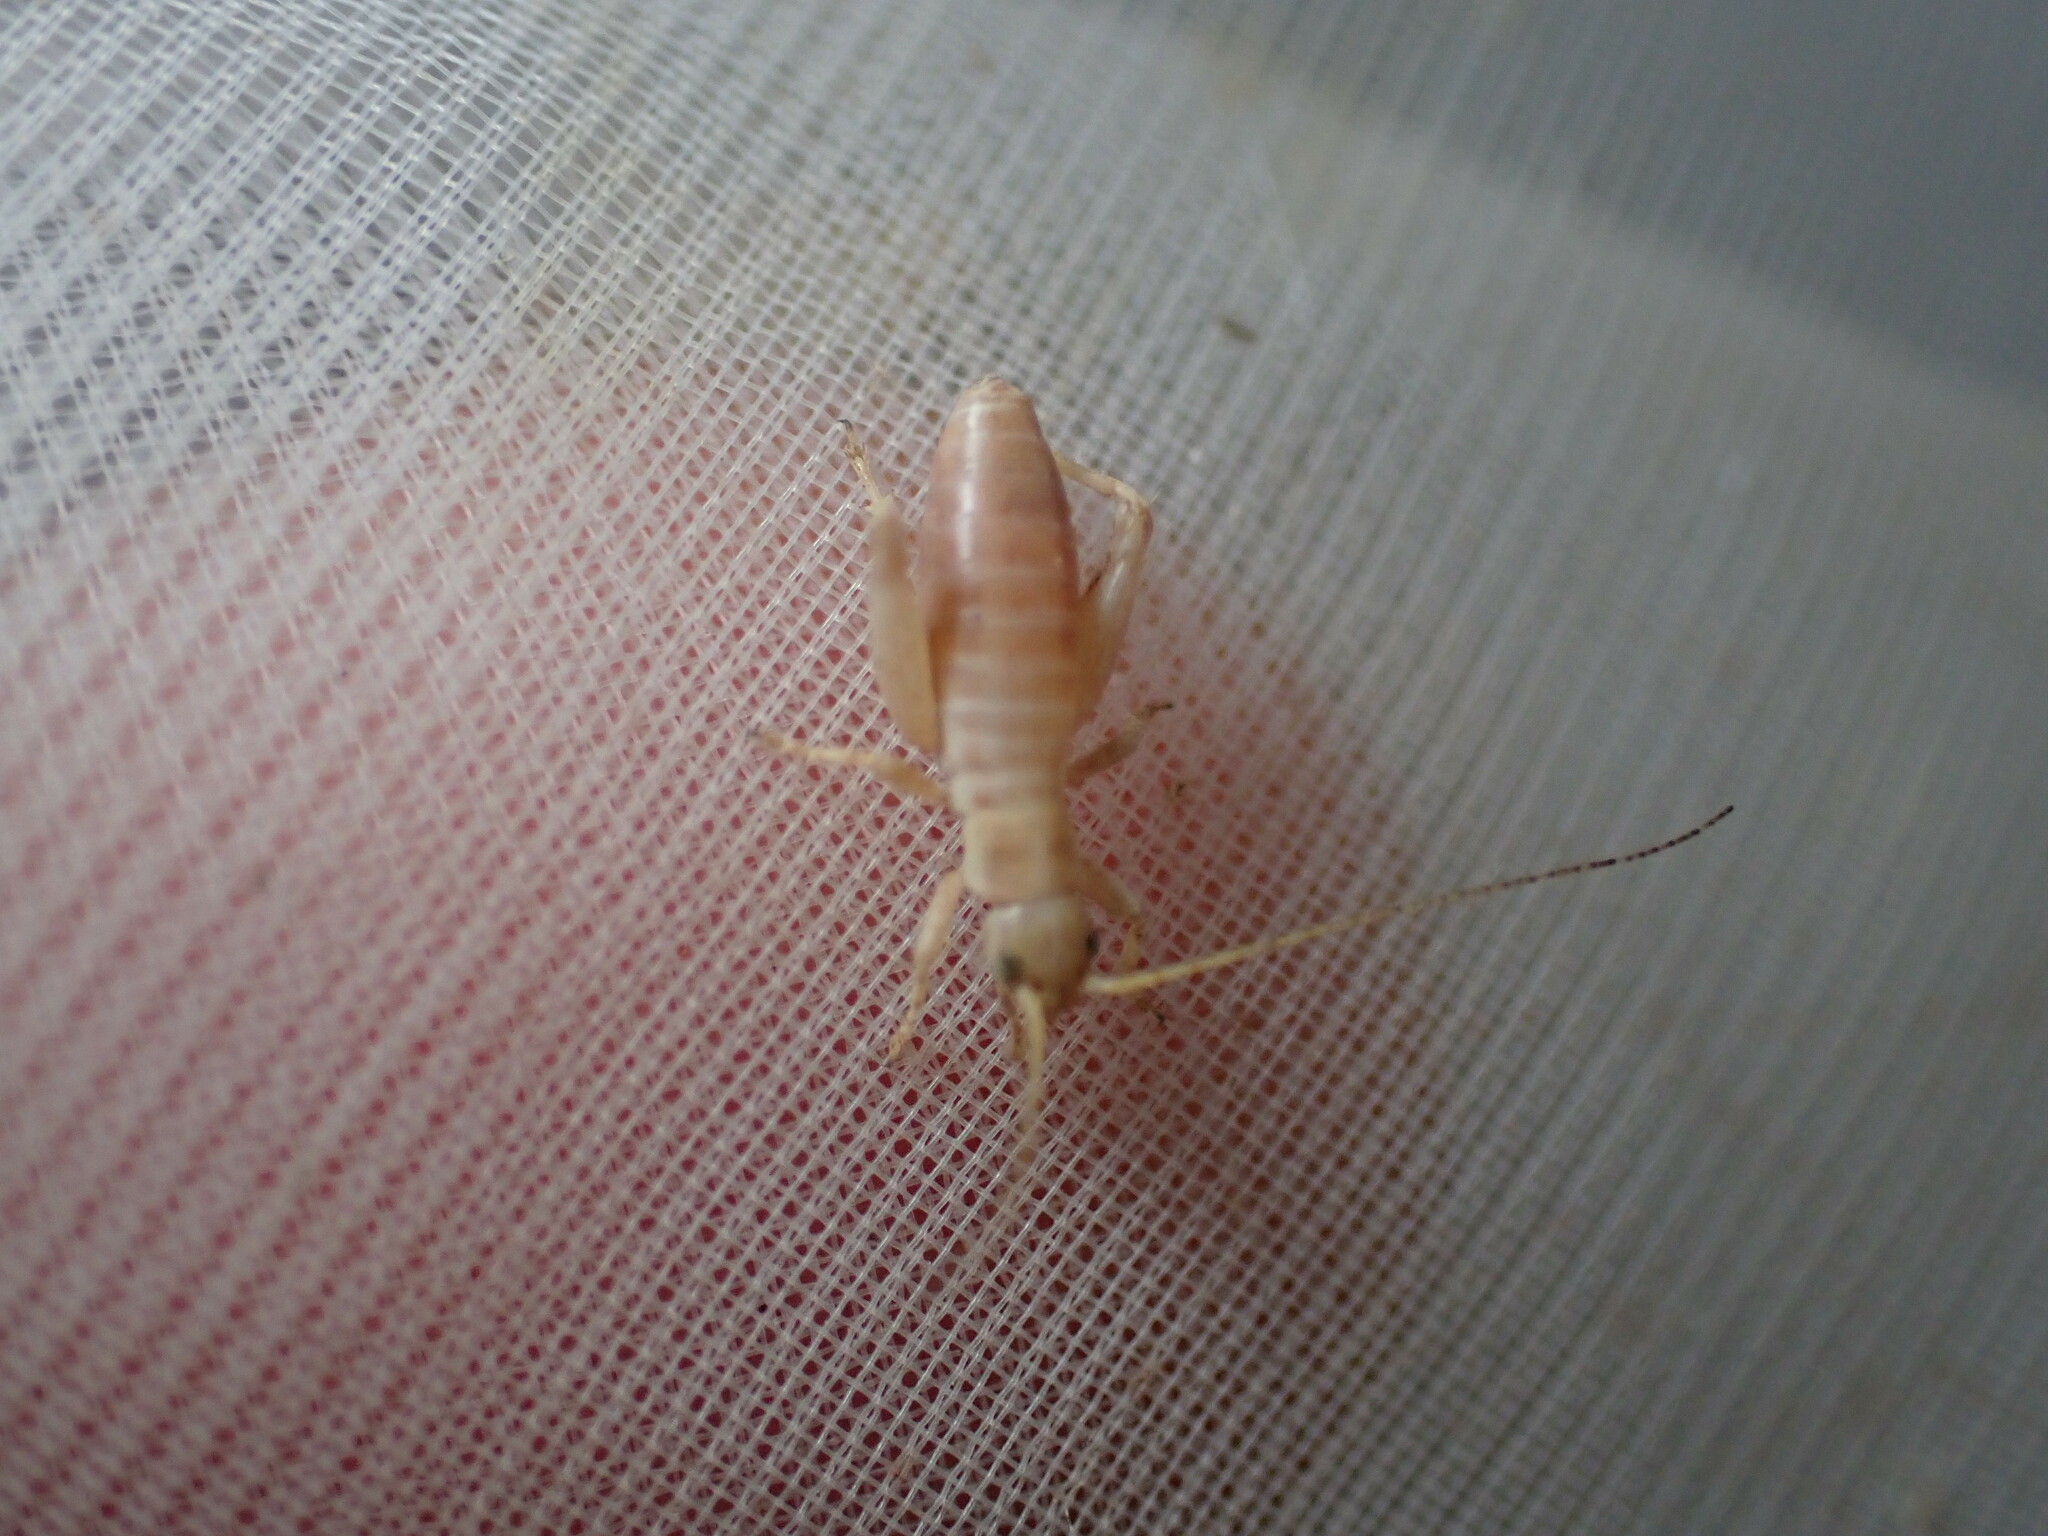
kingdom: Animalia
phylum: Arthropoda
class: Insecta
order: Orthoptera
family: Mogoplistidae
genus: Arachnocephalus
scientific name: Arachnocephalus vestitus
